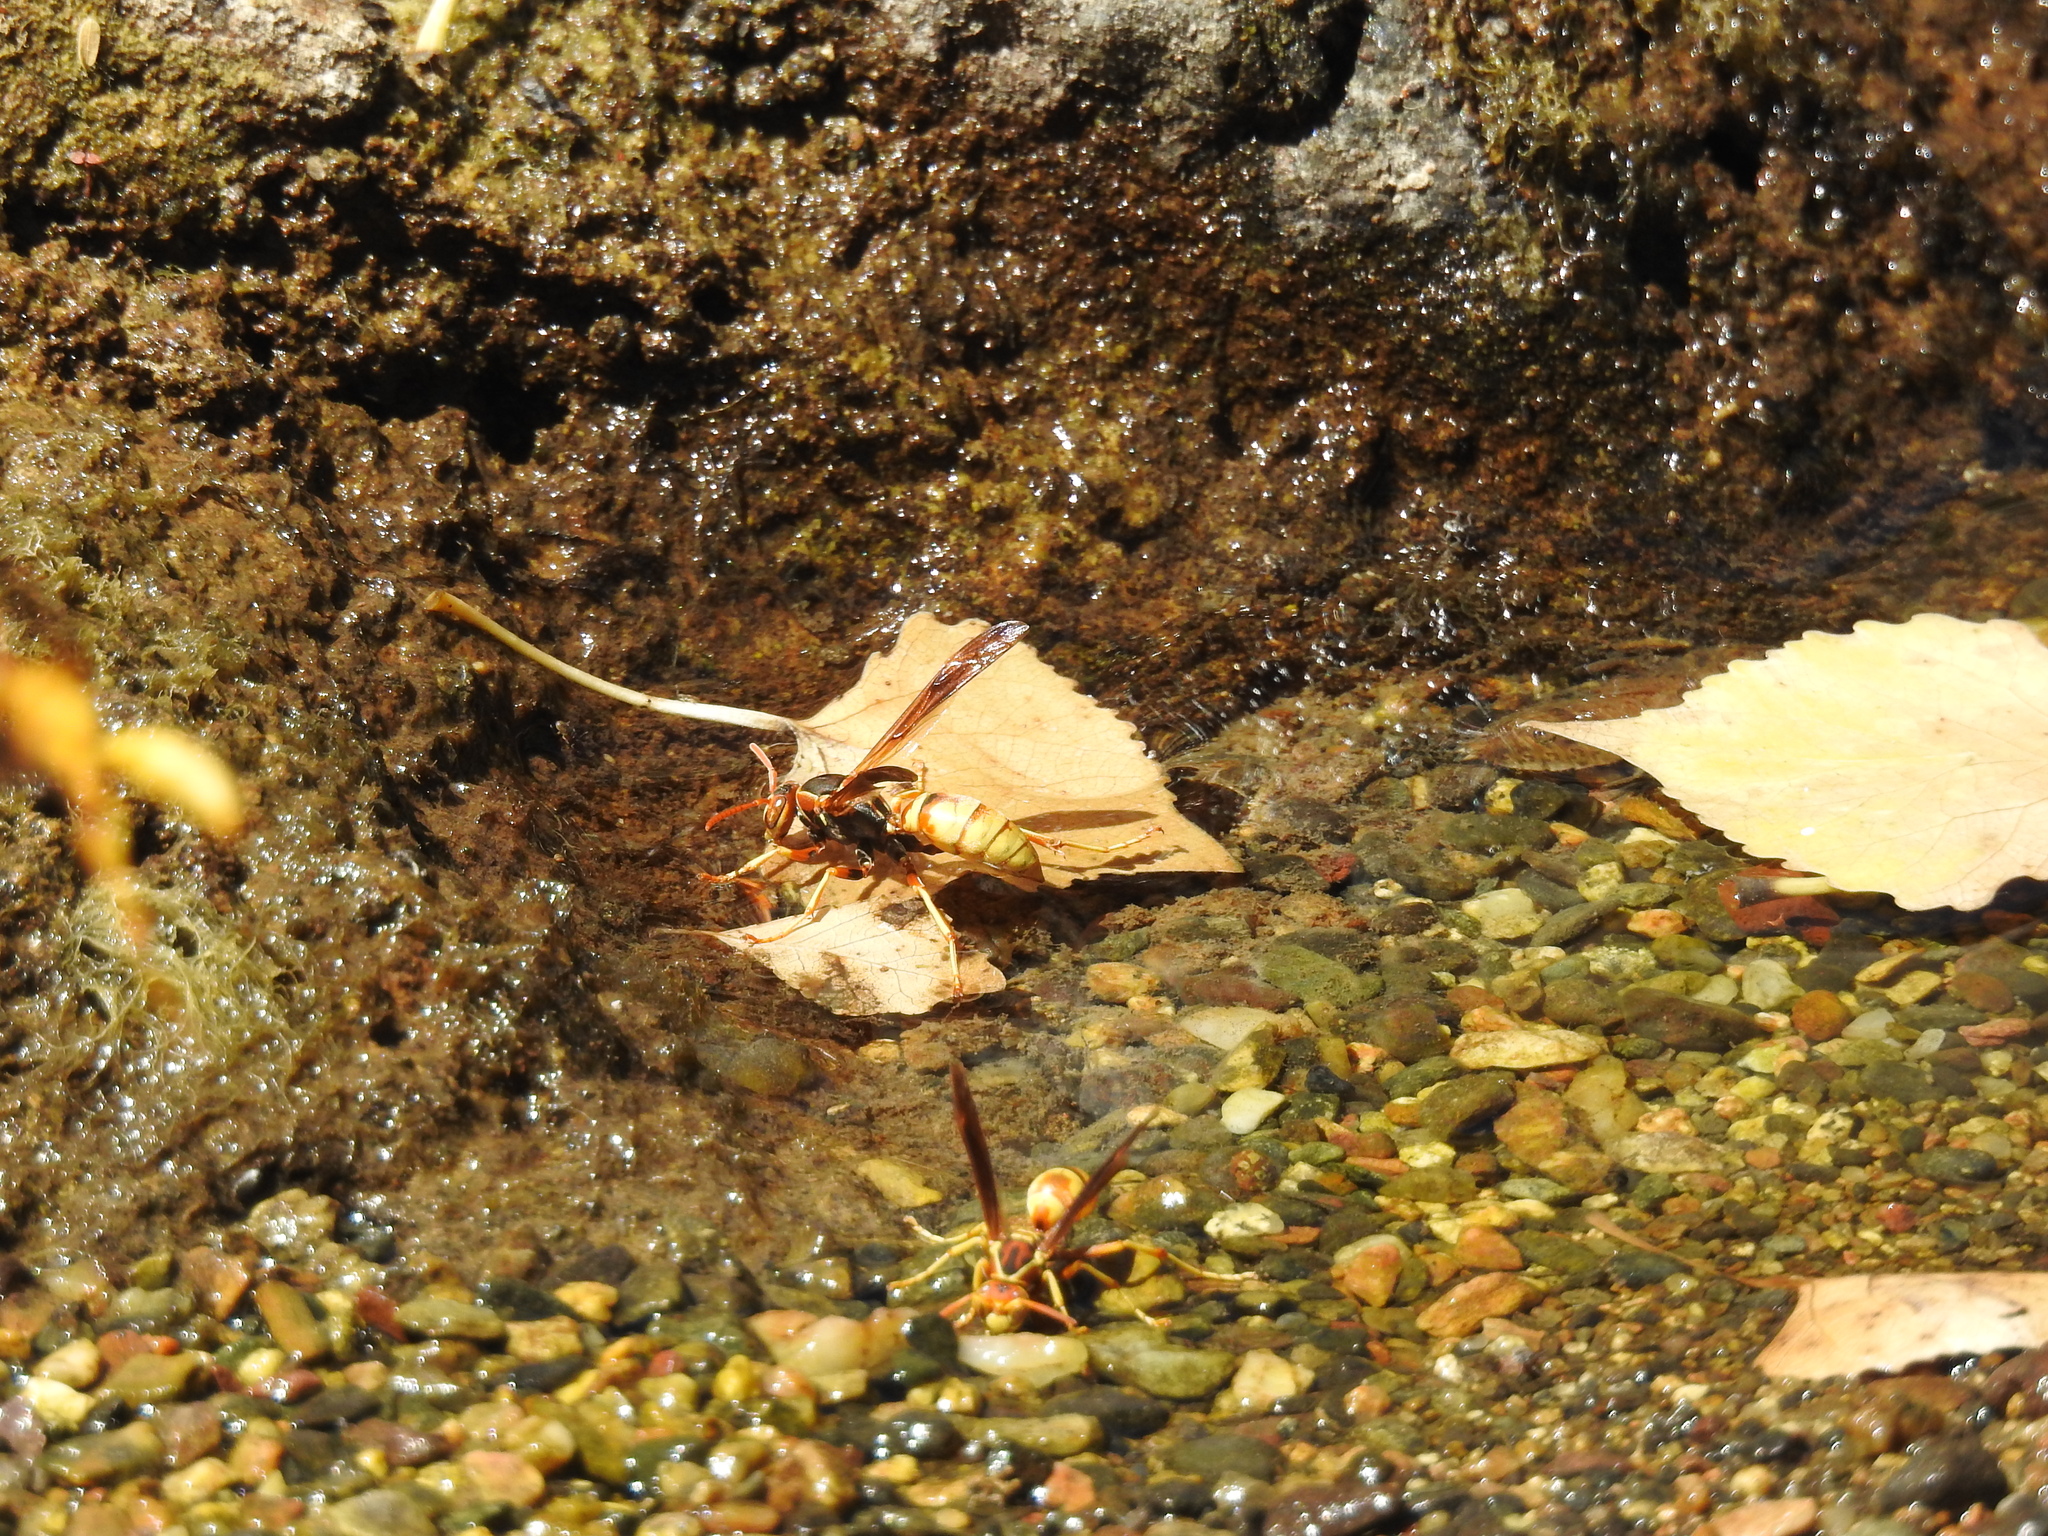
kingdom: Animalia
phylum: Arthropoda
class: Insecta
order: Hymenoptera
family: Vespidae
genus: Fuscopolistes
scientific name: Fuscopolistes
